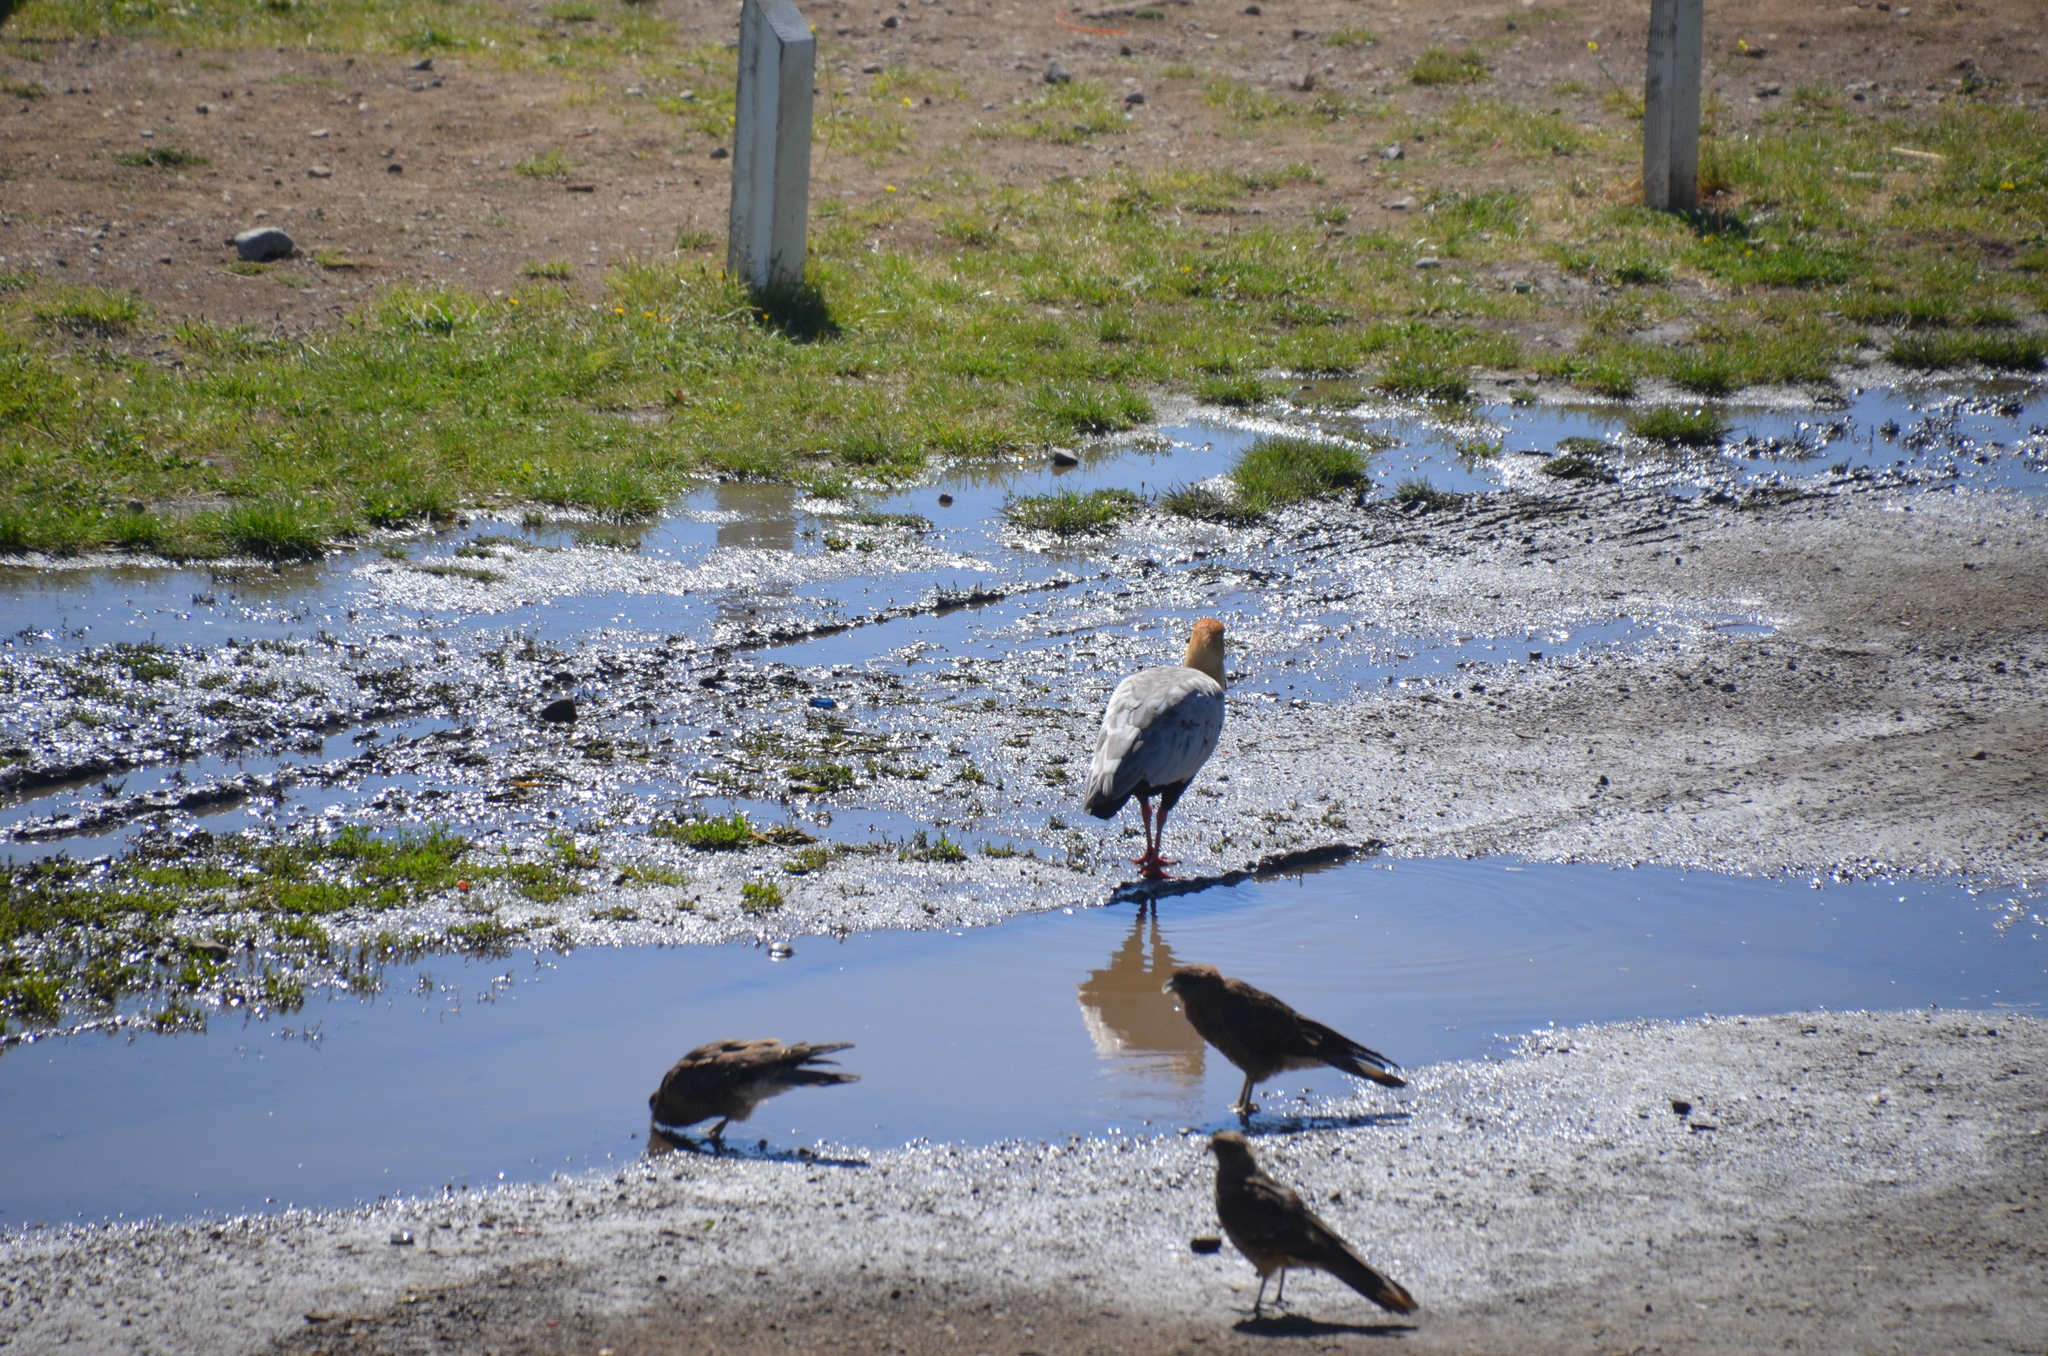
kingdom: Animalia
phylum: Chordata
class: Aves
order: Falconiformes
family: Falconidae
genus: Daptrius
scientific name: Daptrius
